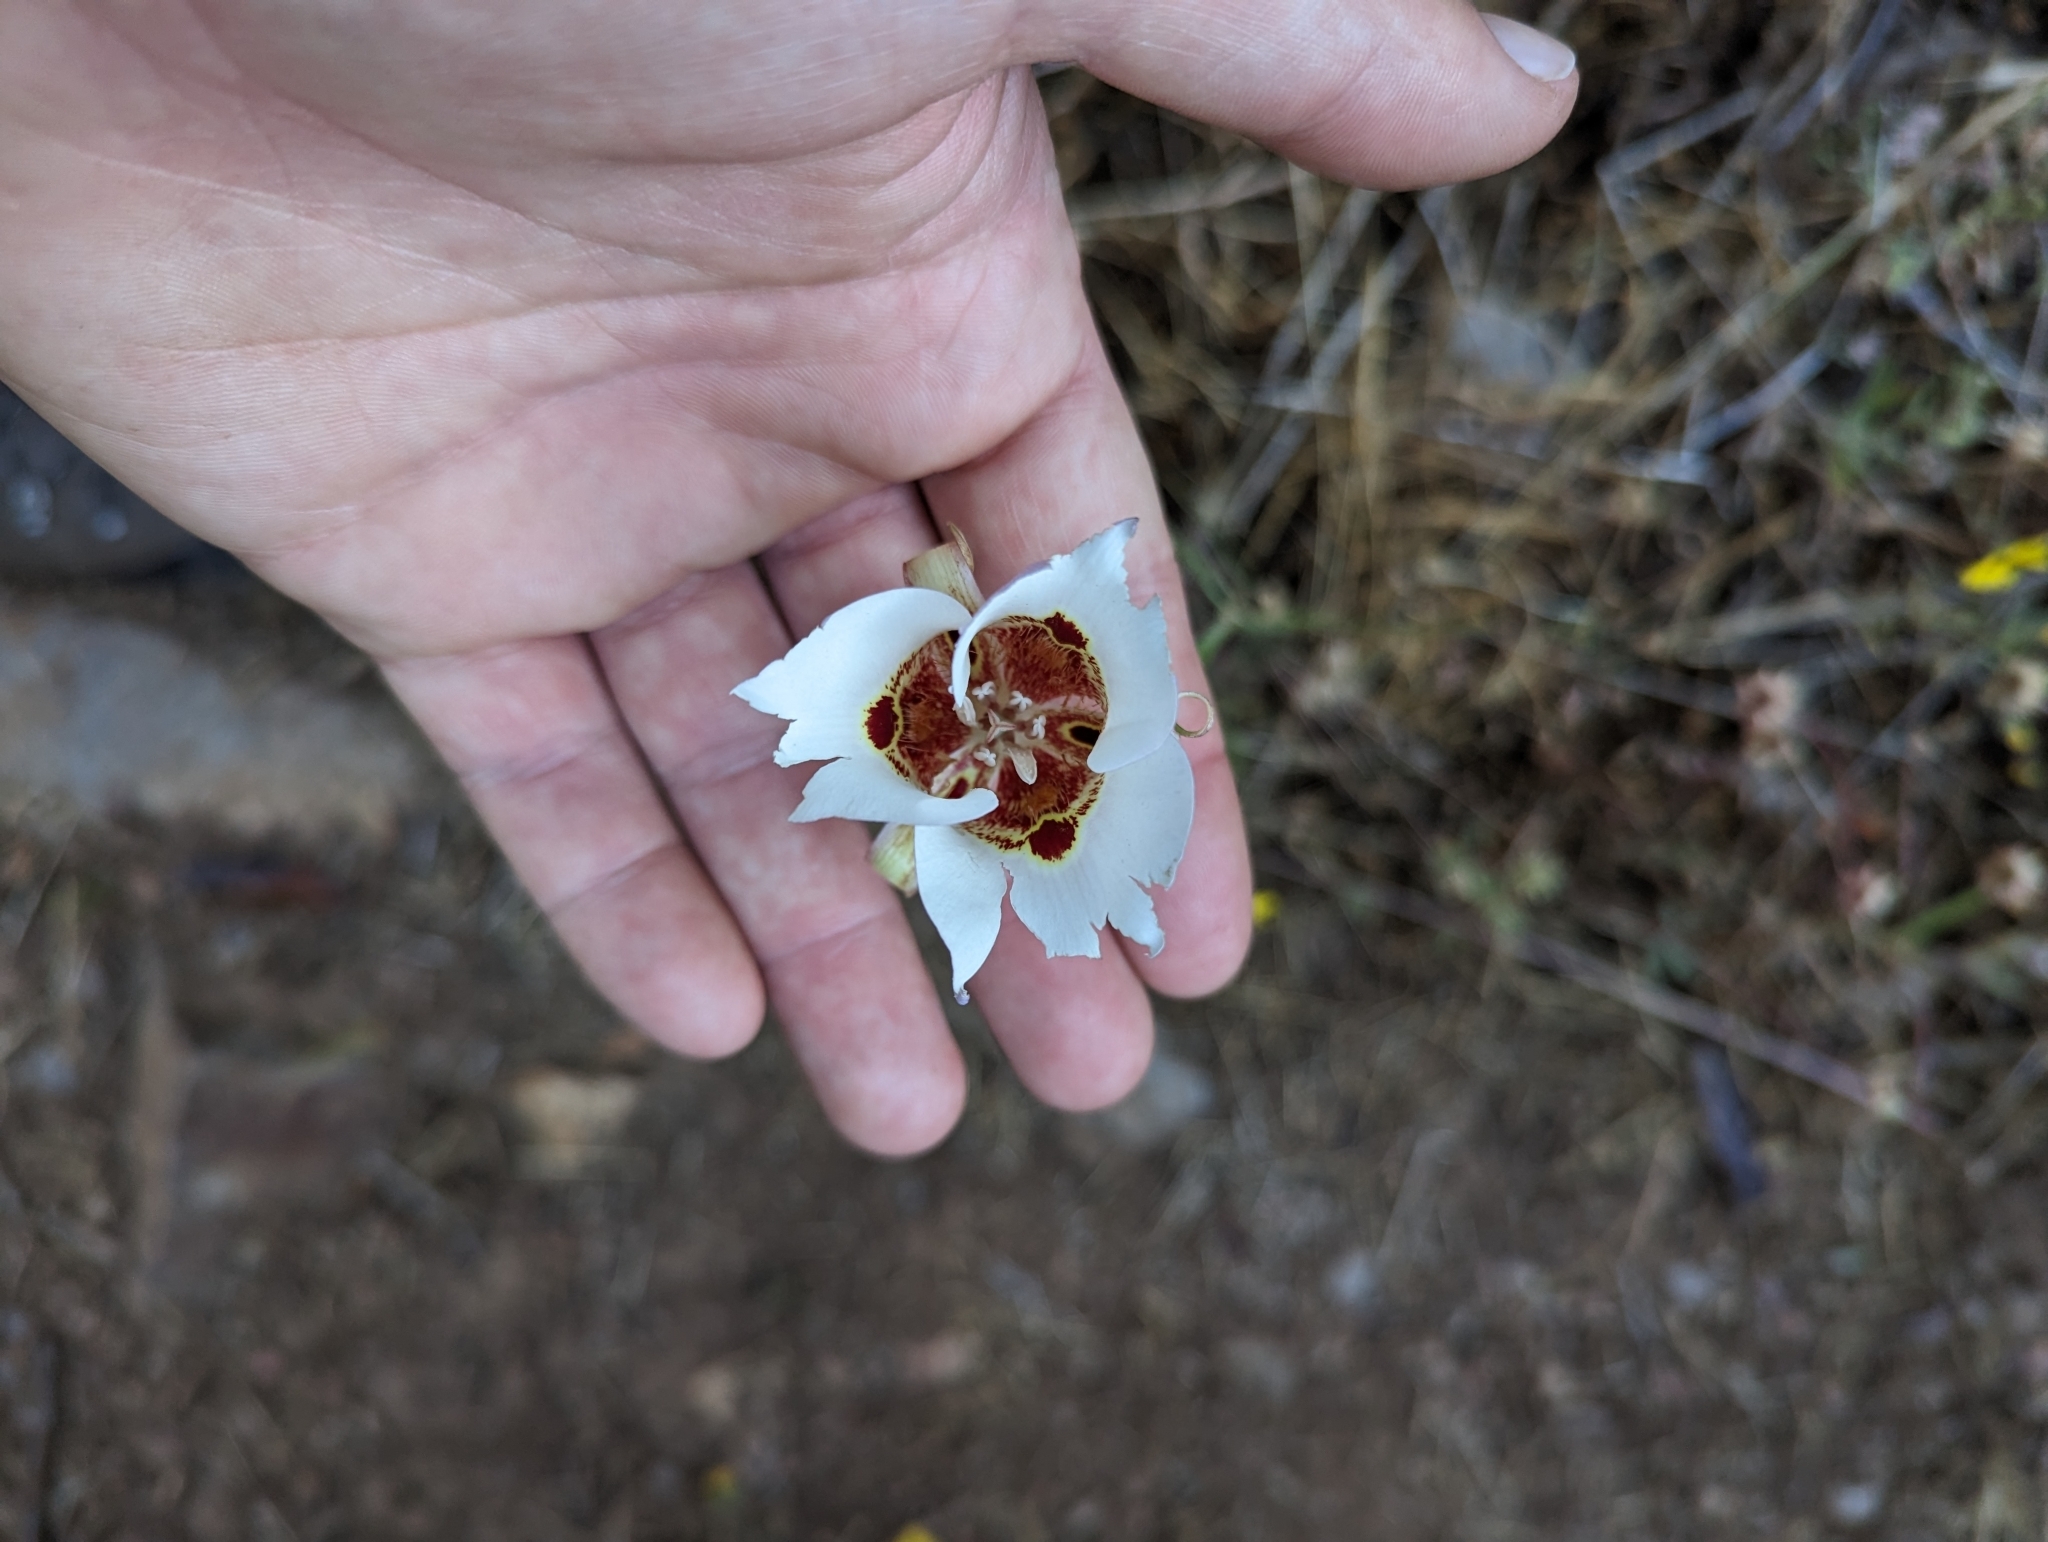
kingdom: Plantae
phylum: Tracheophyta
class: Liliopsida
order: Liliales
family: Liliaceae
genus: Calochortus
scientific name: Calochortus venustus
